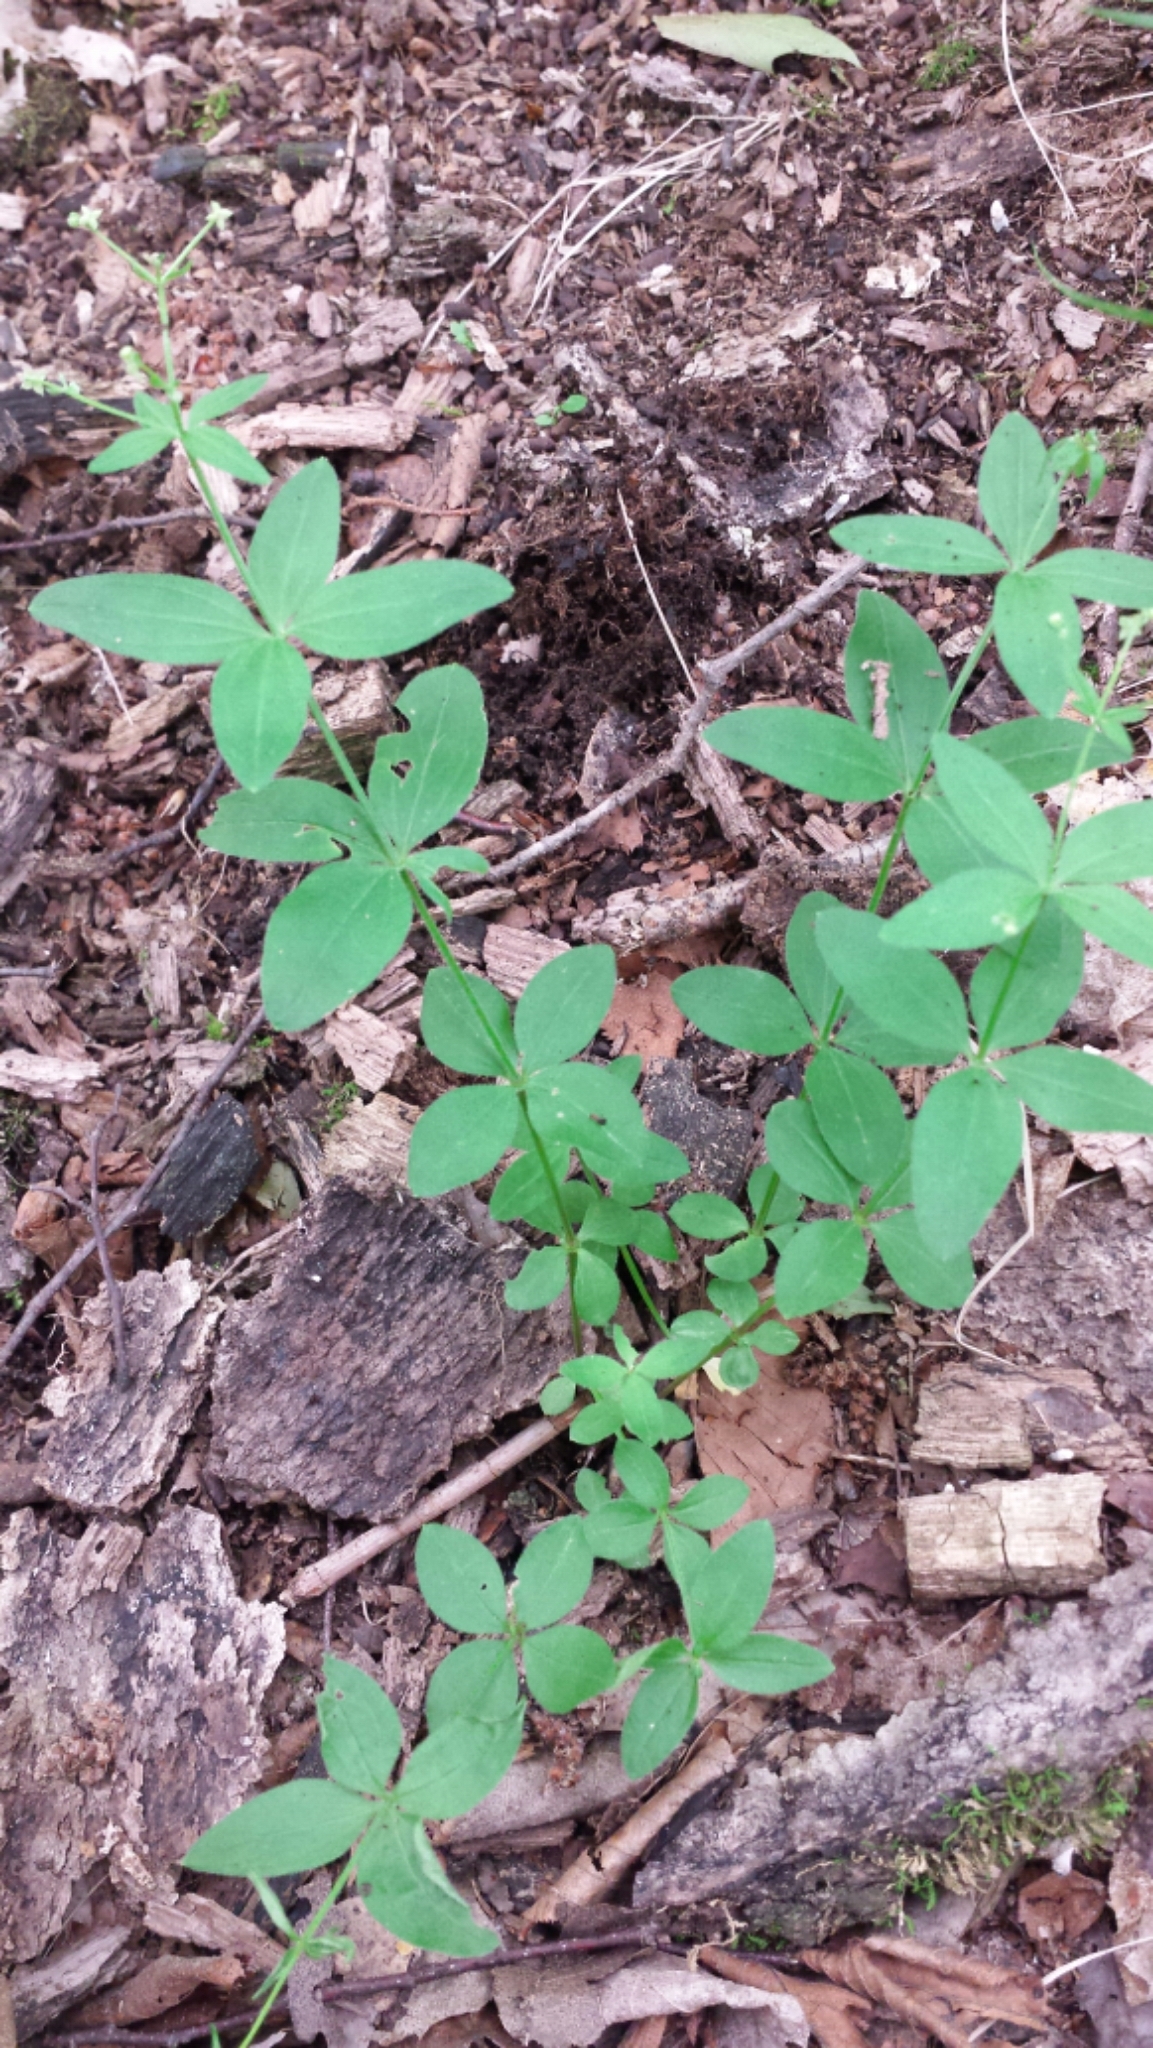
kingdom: Plantae
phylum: Tracheophyta
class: Magnoliopsida
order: Gentianales
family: Rubiaceae
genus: Galium
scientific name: Galium circaezans
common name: Forest bedstraw
